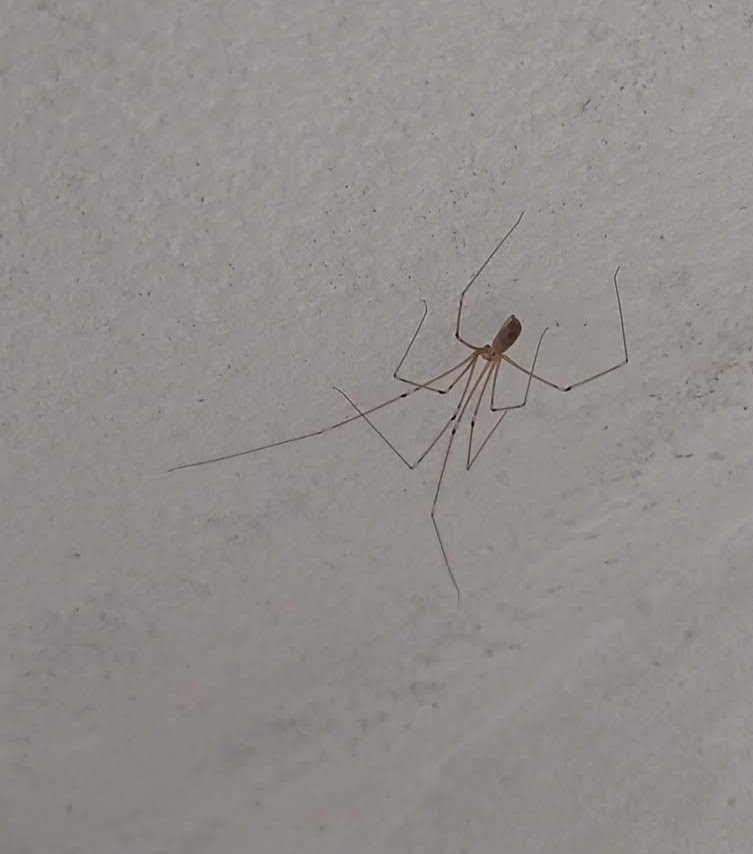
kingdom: Animalia
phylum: Arthropoda
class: Arachnida
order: Araneae
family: Pholcidae
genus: Pholcus
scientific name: Pholcus phalangioides
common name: Longbodied cellar spider
